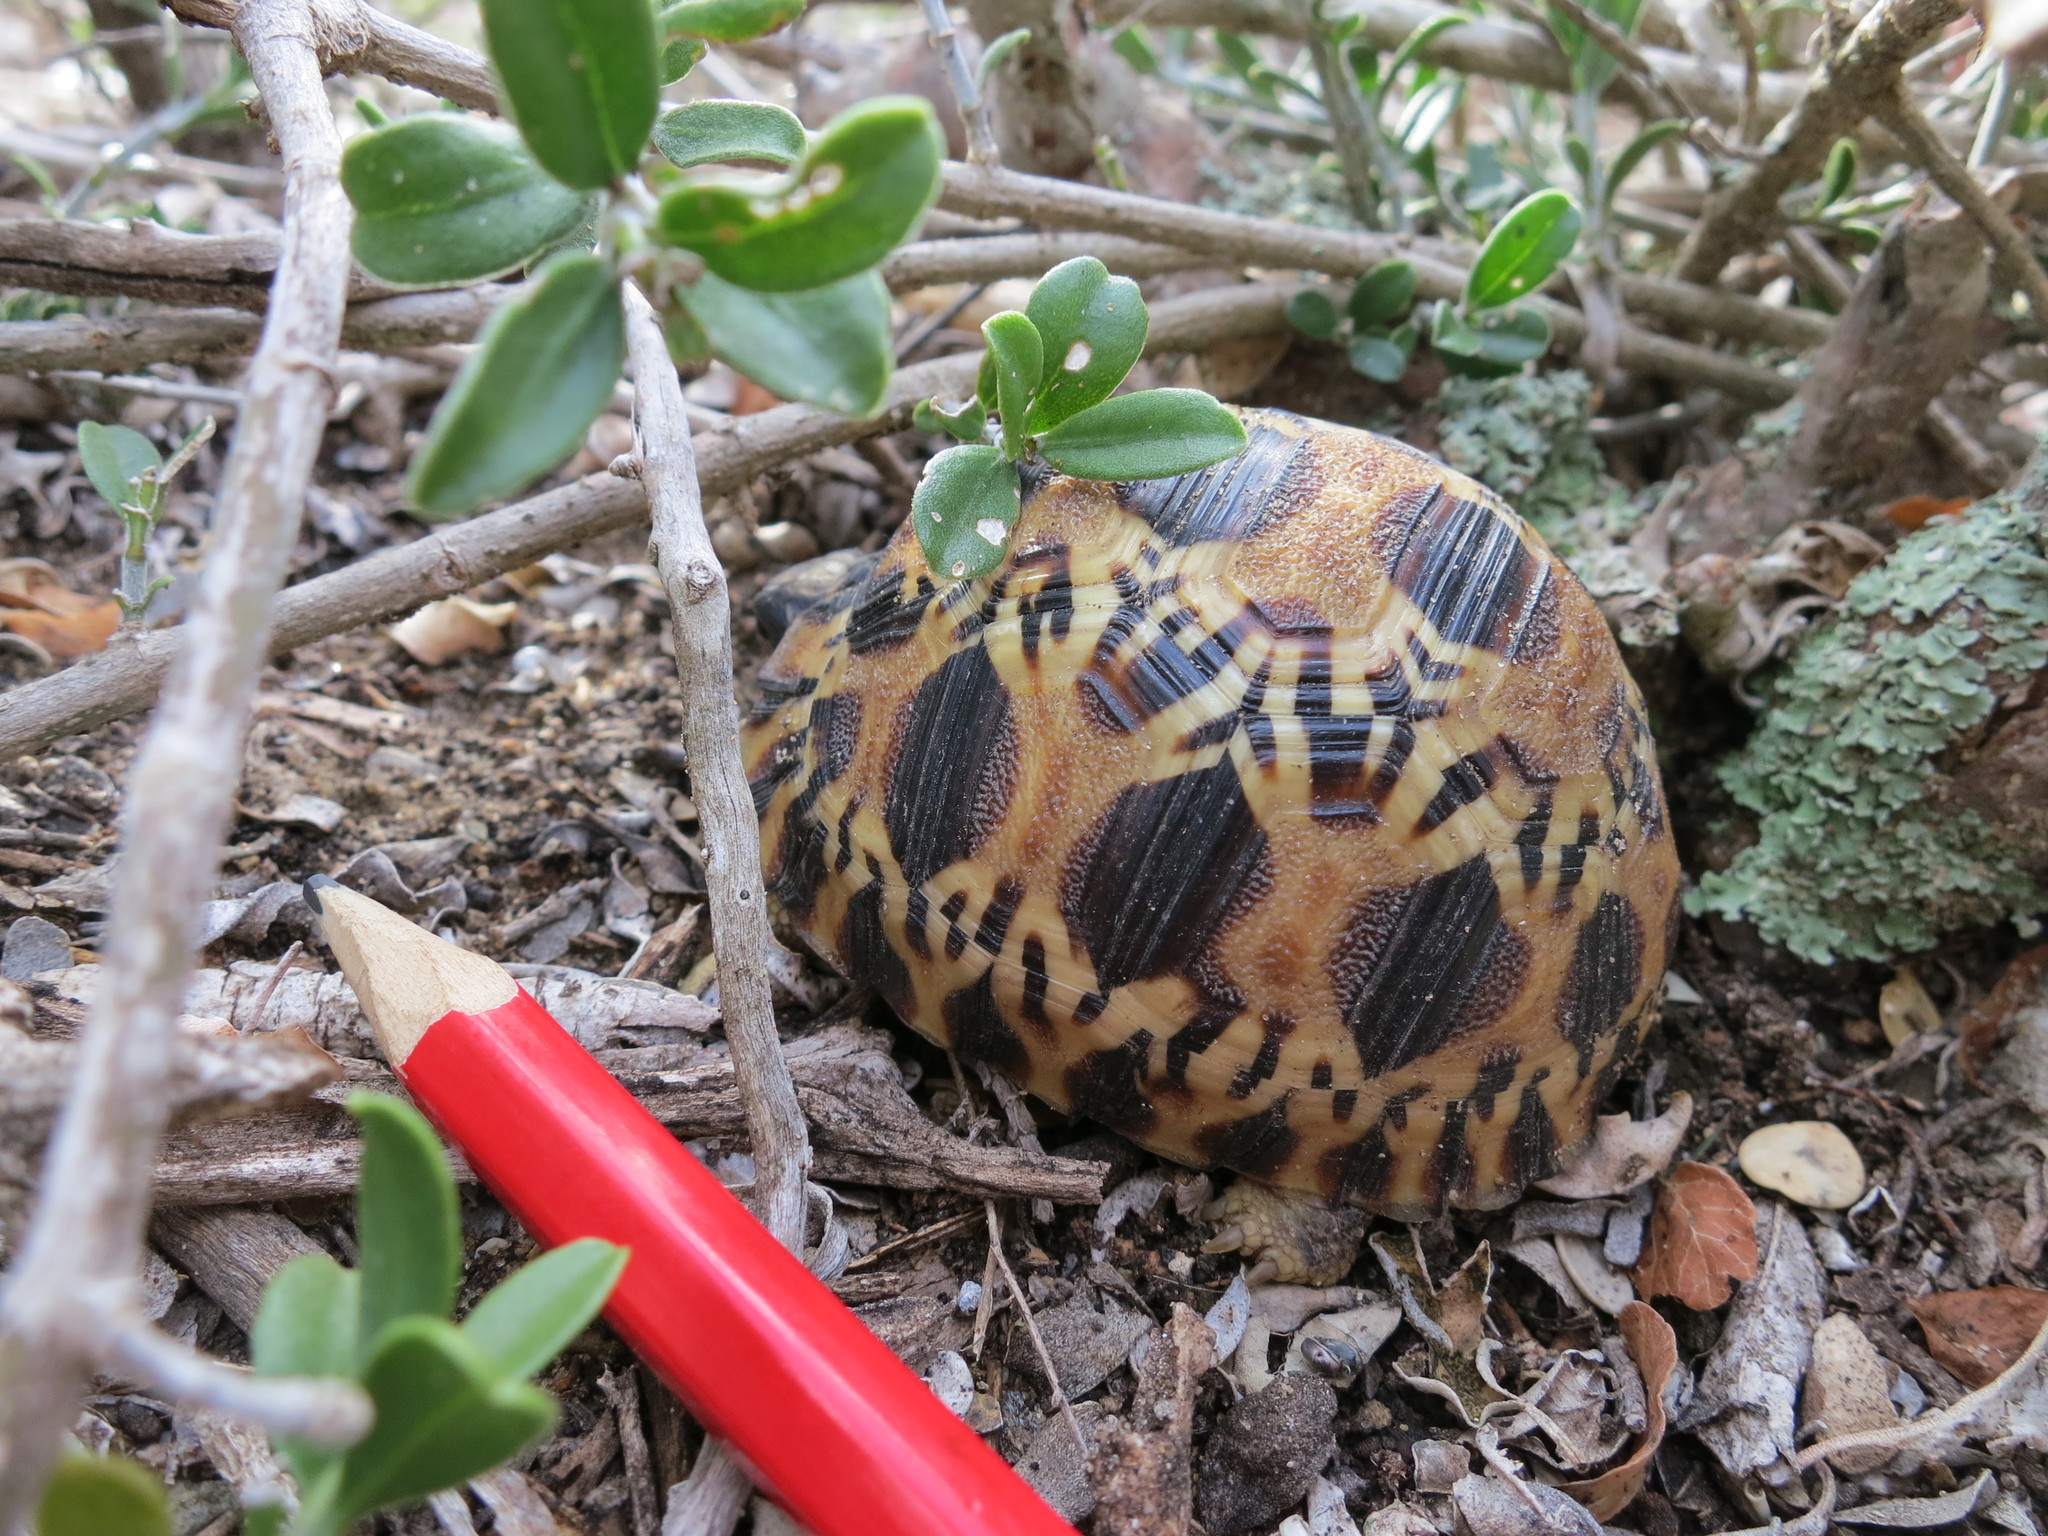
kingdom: Animalia
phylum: Chordata
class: Testudines
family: Testudinidae
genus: Astrochelys
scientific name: Astrochelys radiata
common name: Radiated tortoise
